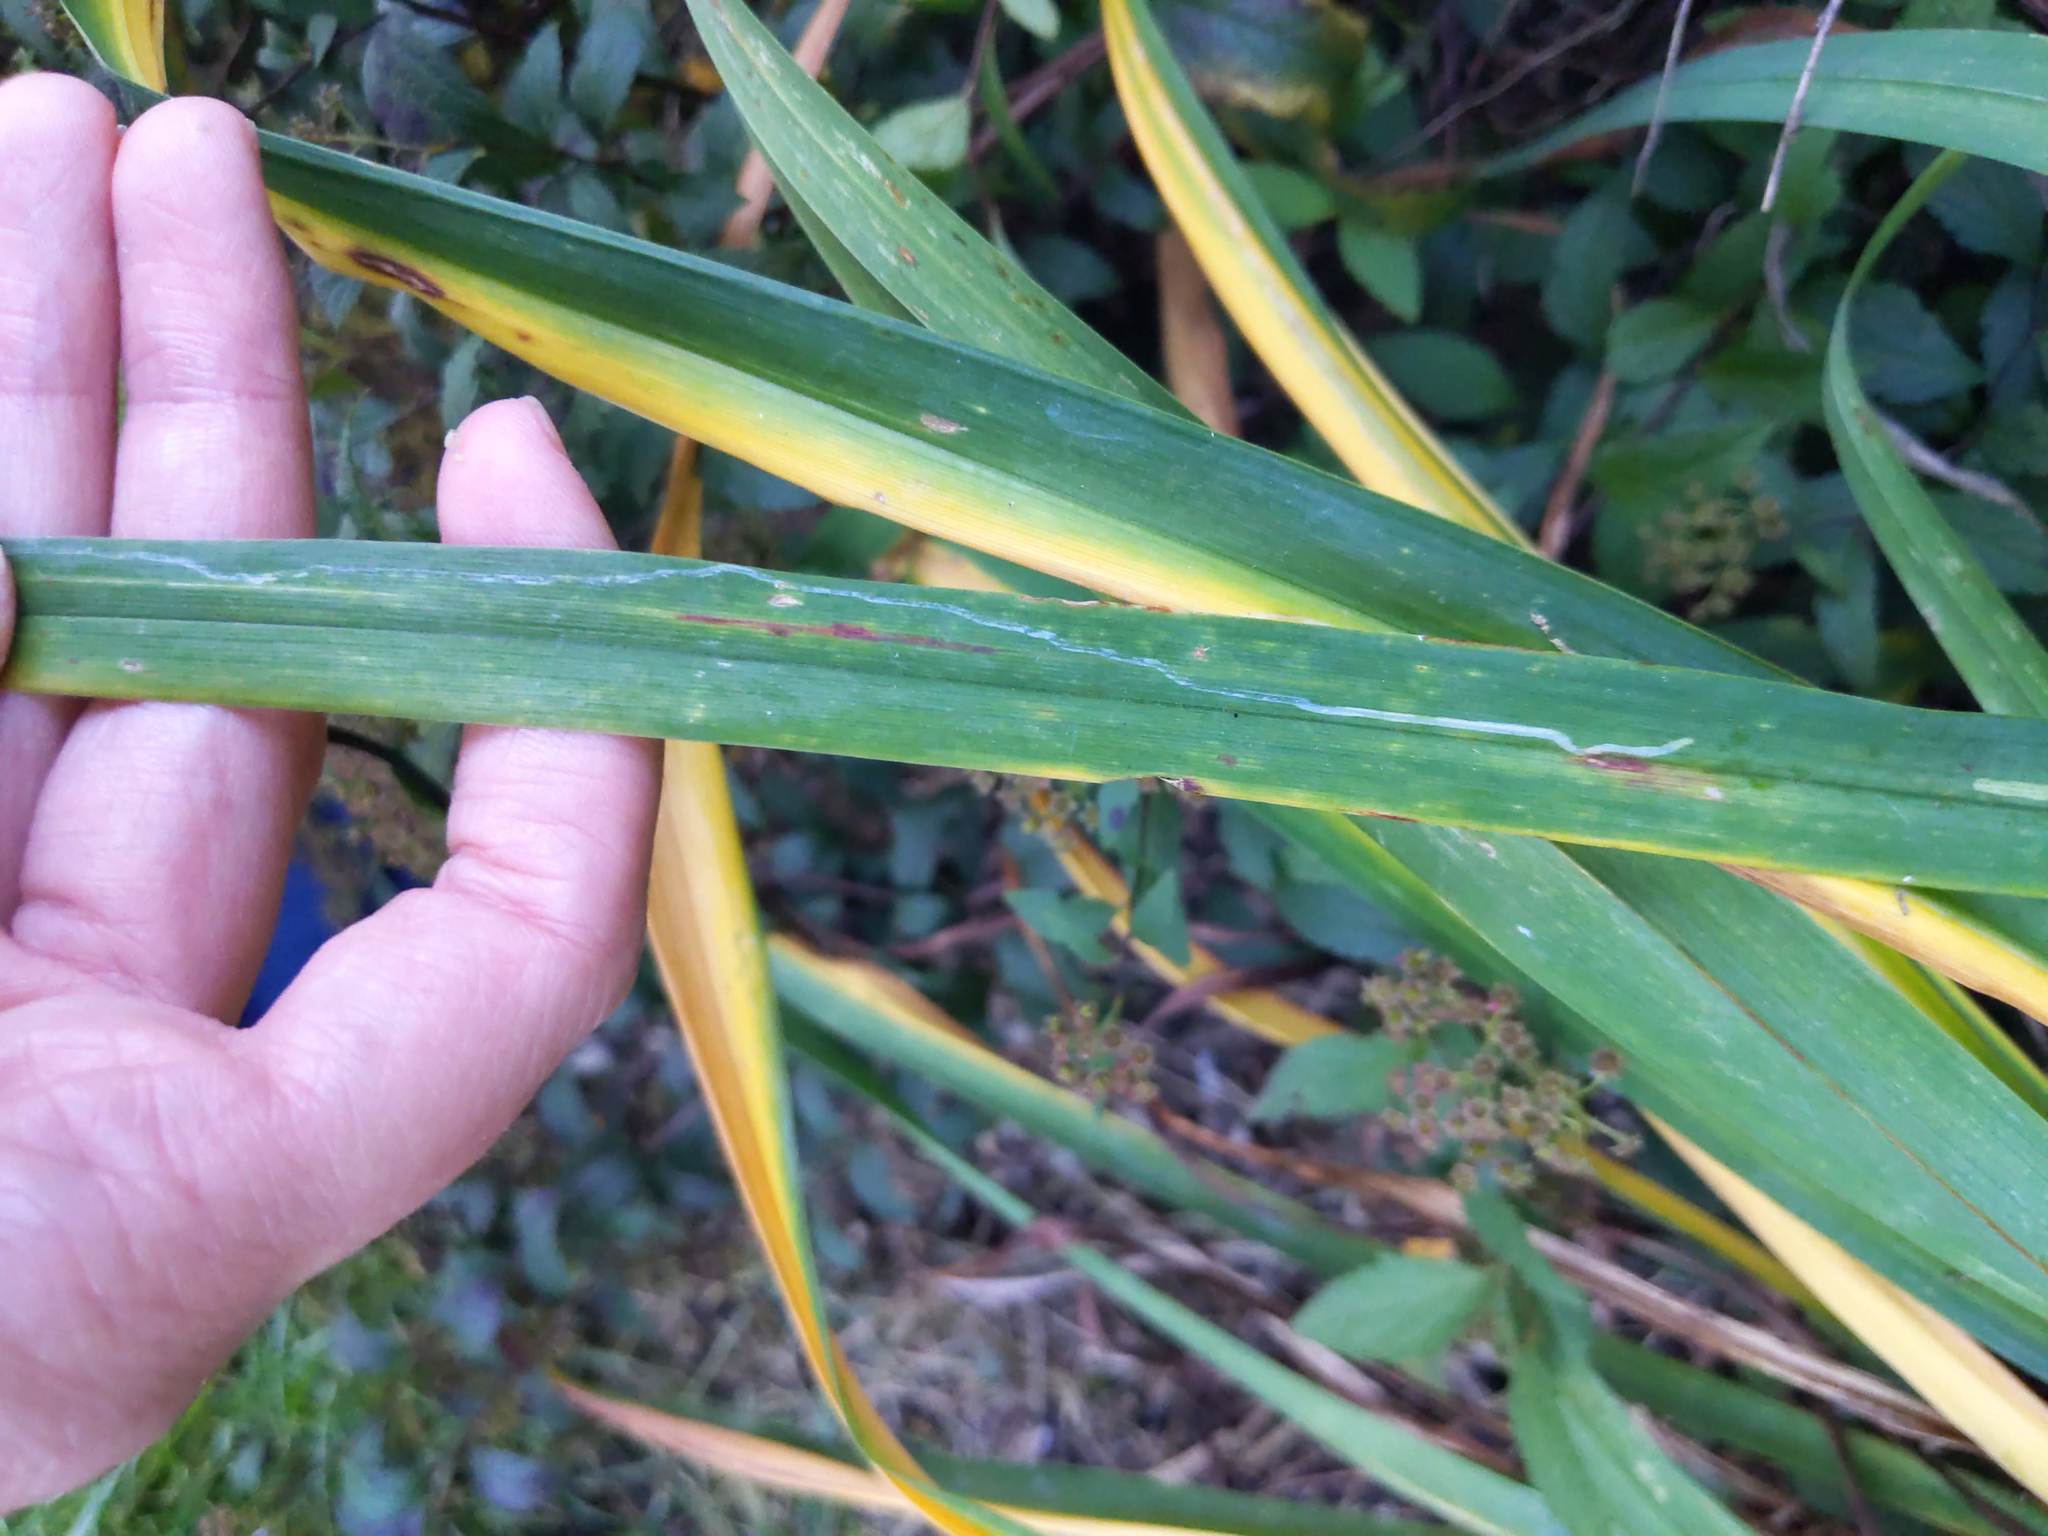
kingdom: Animalia
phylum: Arthropoda
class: Insecta
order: Diptera
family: Agromyzidae
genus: Ophiomyia
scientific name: Ophiomyia kwansonis
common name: Daylily leafminer
